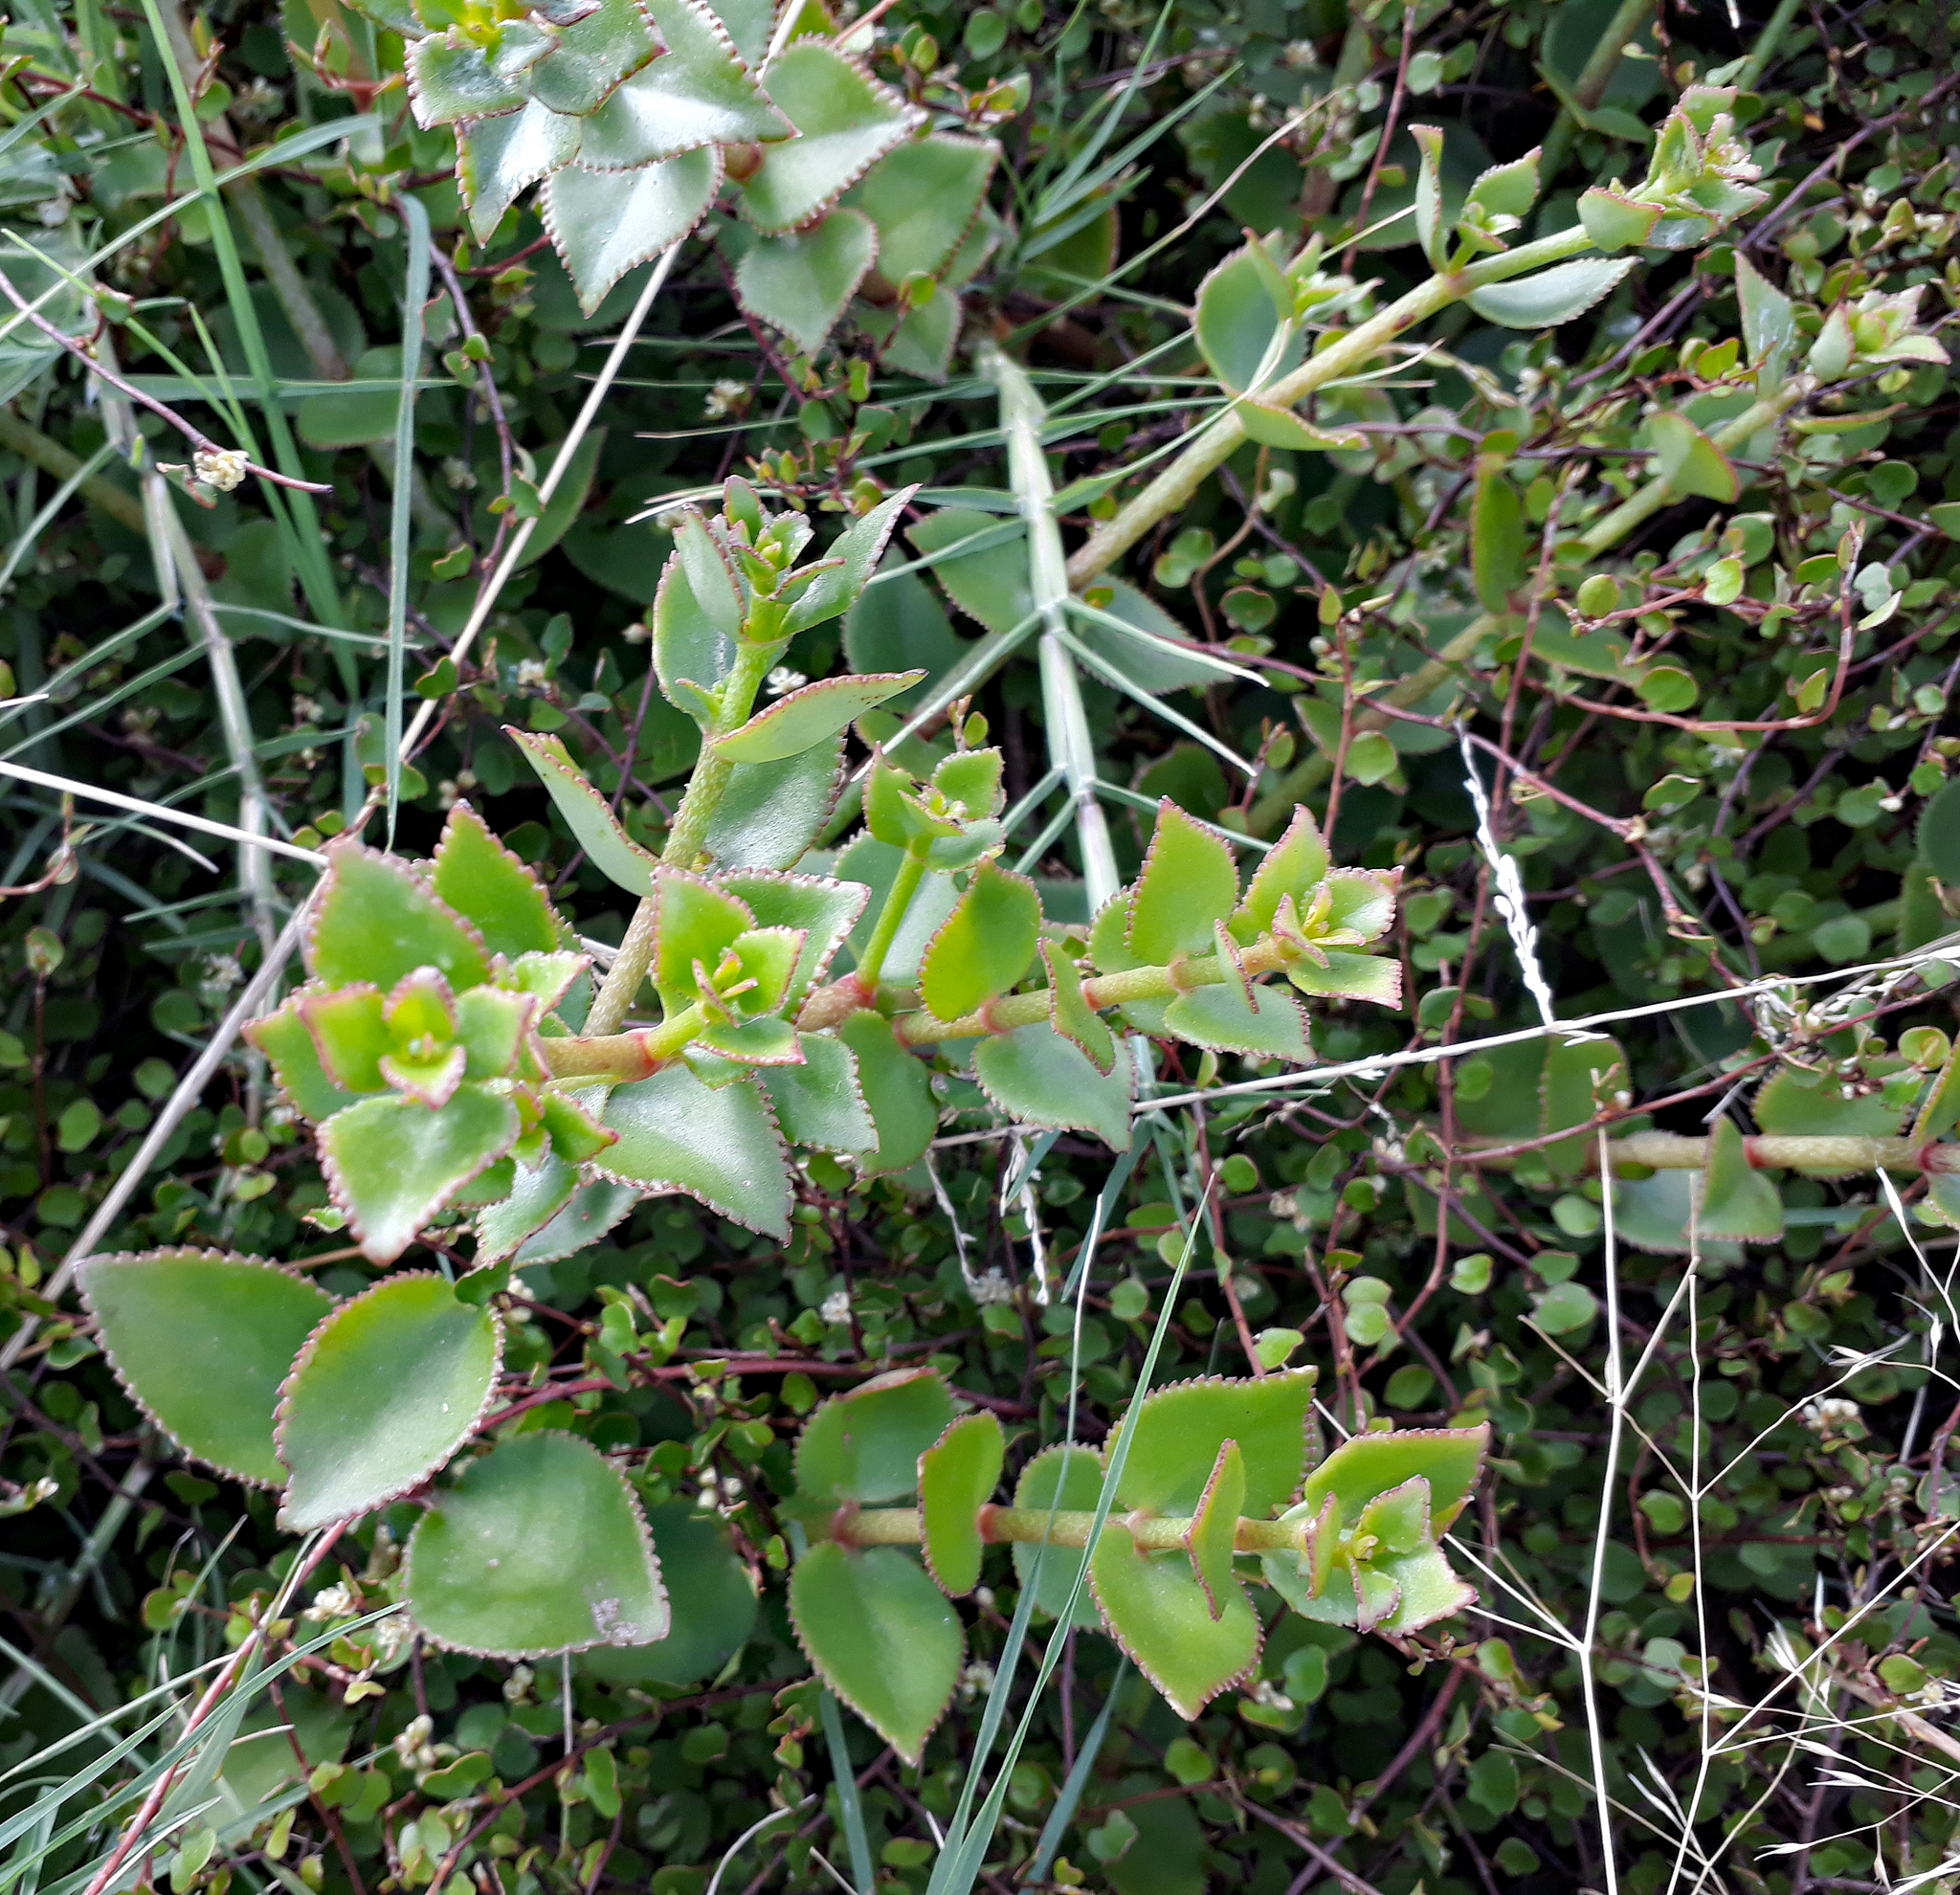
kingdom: Plantae
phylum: Tracheophyta
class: Magnoliopsida
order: Saxifragales
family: Crassulaceae
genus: Crassula
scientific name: Crassula sarmentosa
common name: Jade-tree
